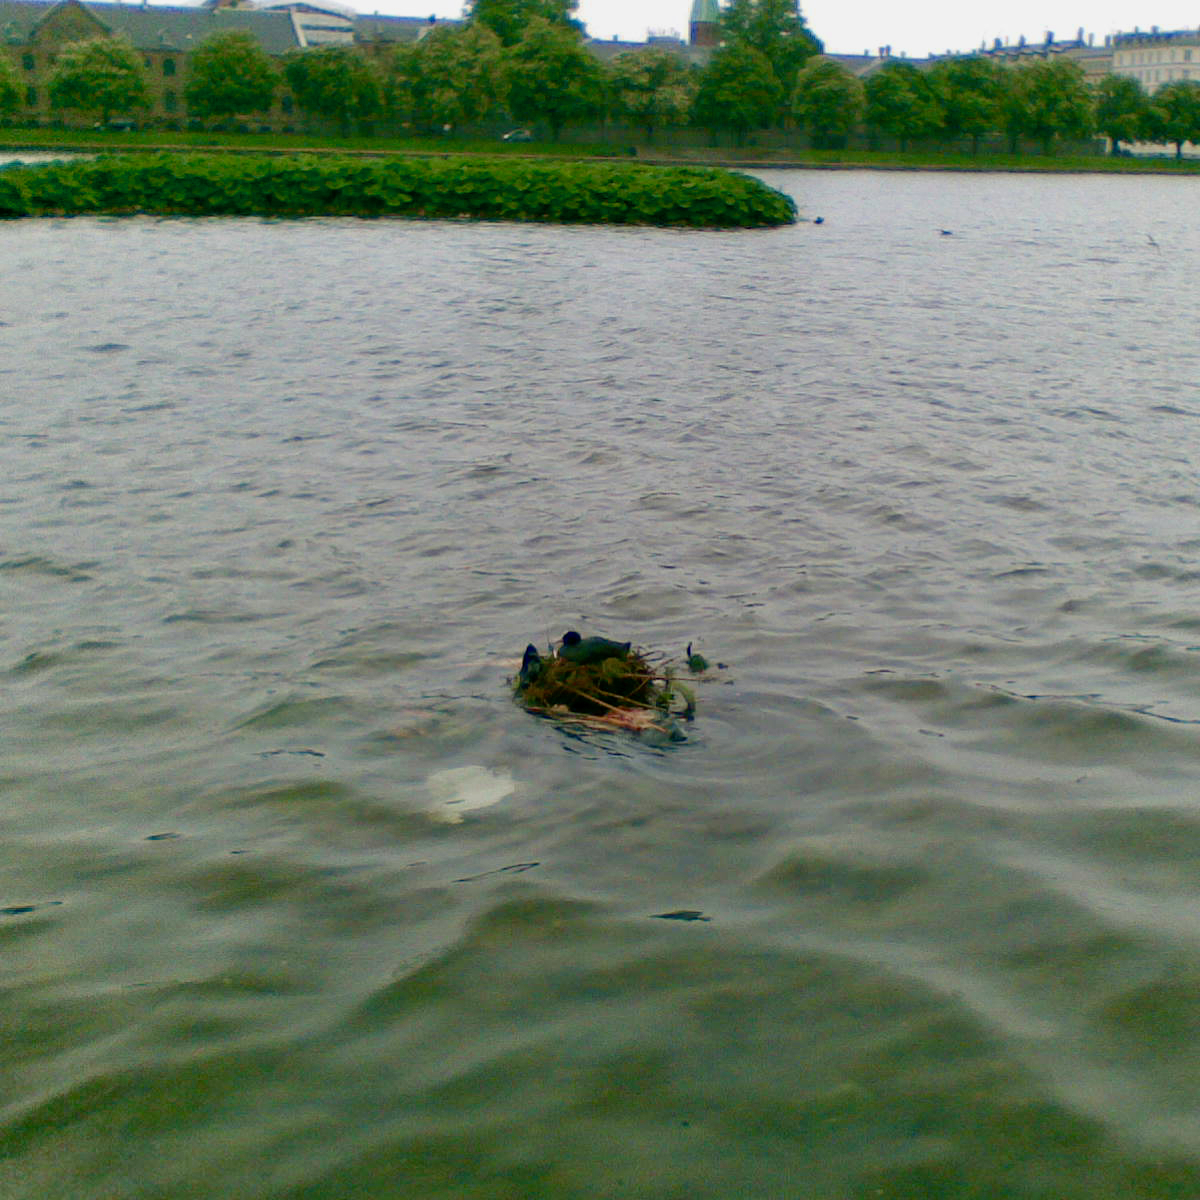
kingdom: Animalia
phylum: Chordata
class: Aves
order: Gruiformes
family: Rallidae
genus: Fulica
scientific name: Fulica atra
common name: Eurasian coot
